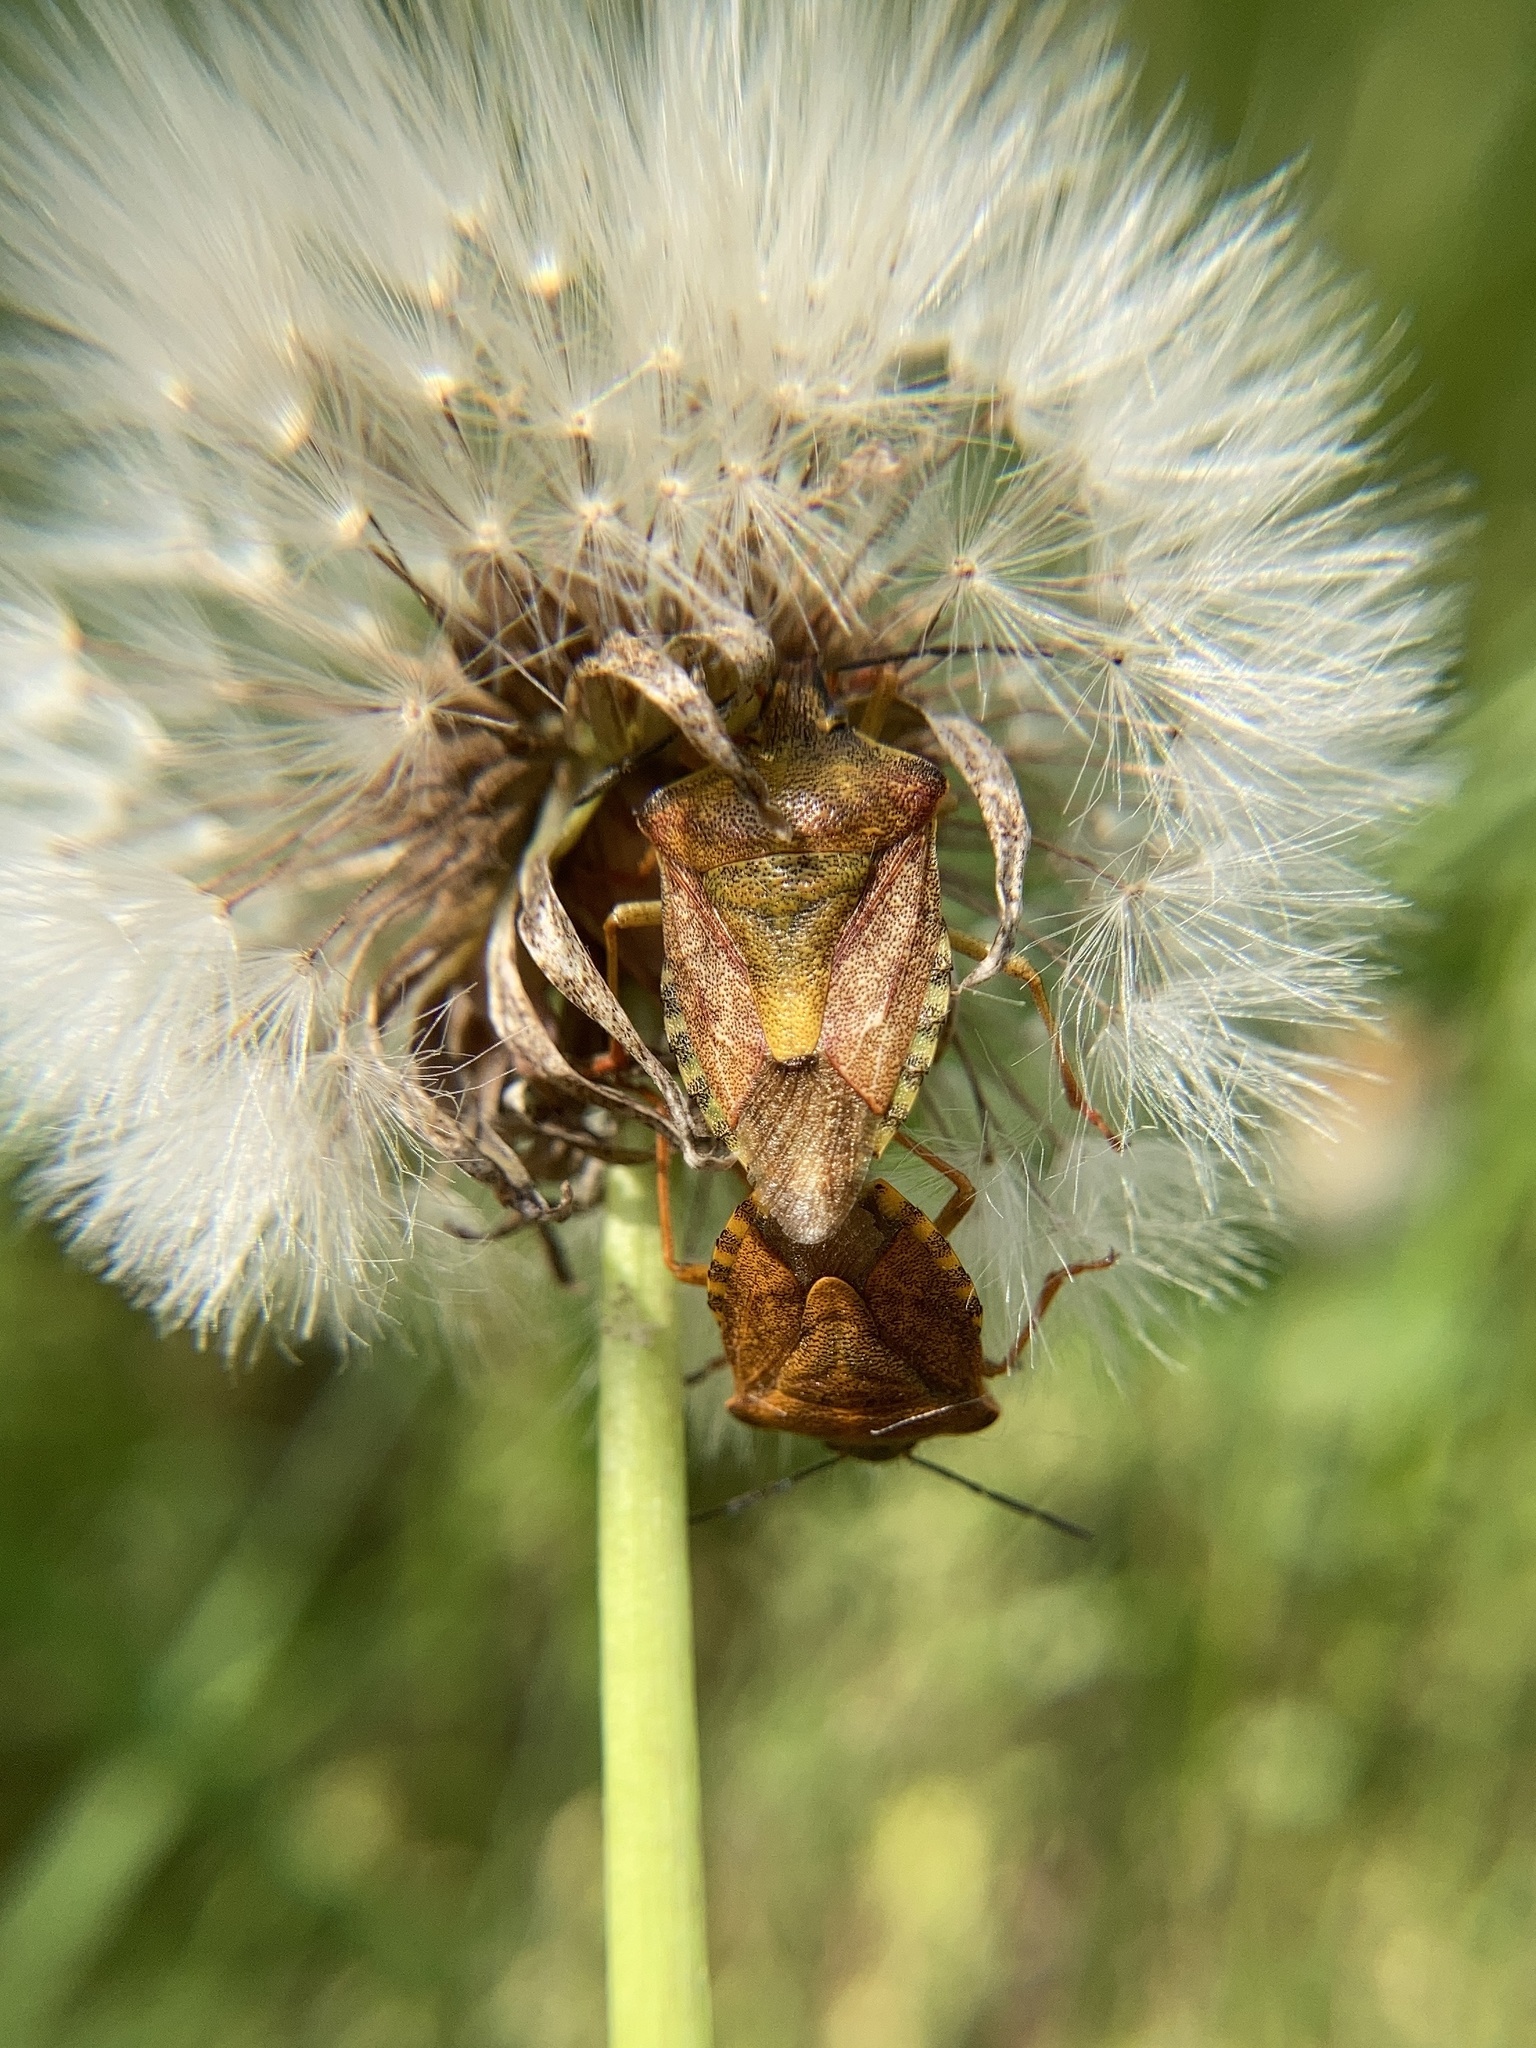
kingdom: Animalia
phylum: Arthropoda
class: Insecta
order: Hemiptera
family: Pentatomidae
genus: Carpocoris
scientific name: Carpocoris purpureipennis
